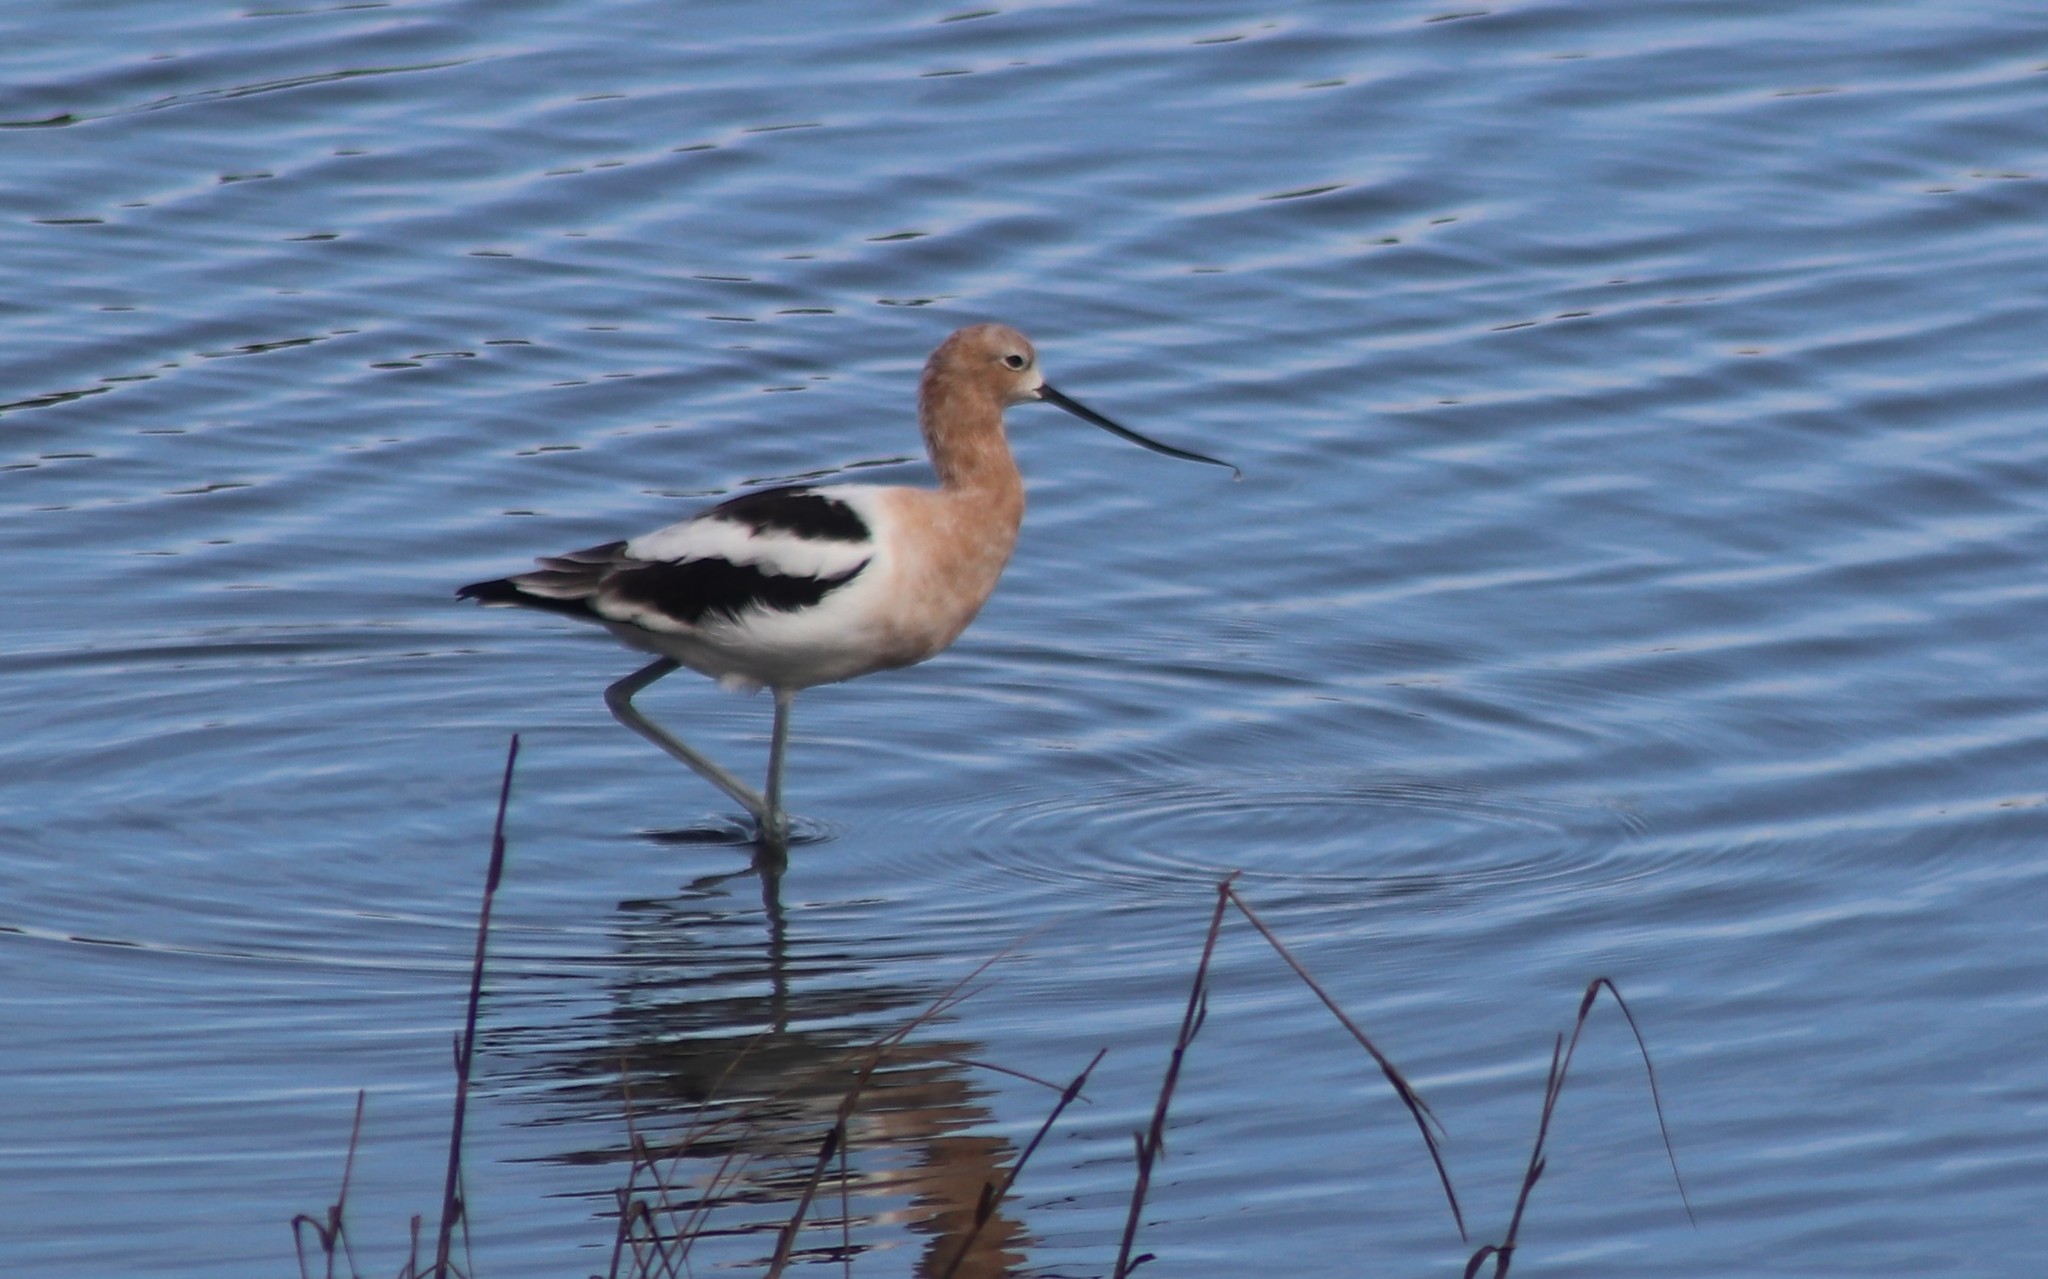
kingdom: Animalia
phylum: Chordata
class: Aves
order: Charadriiformes
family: Recurvirostridae
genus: Recurvirostra
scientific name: Recurvirostra americana
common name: American avocet
